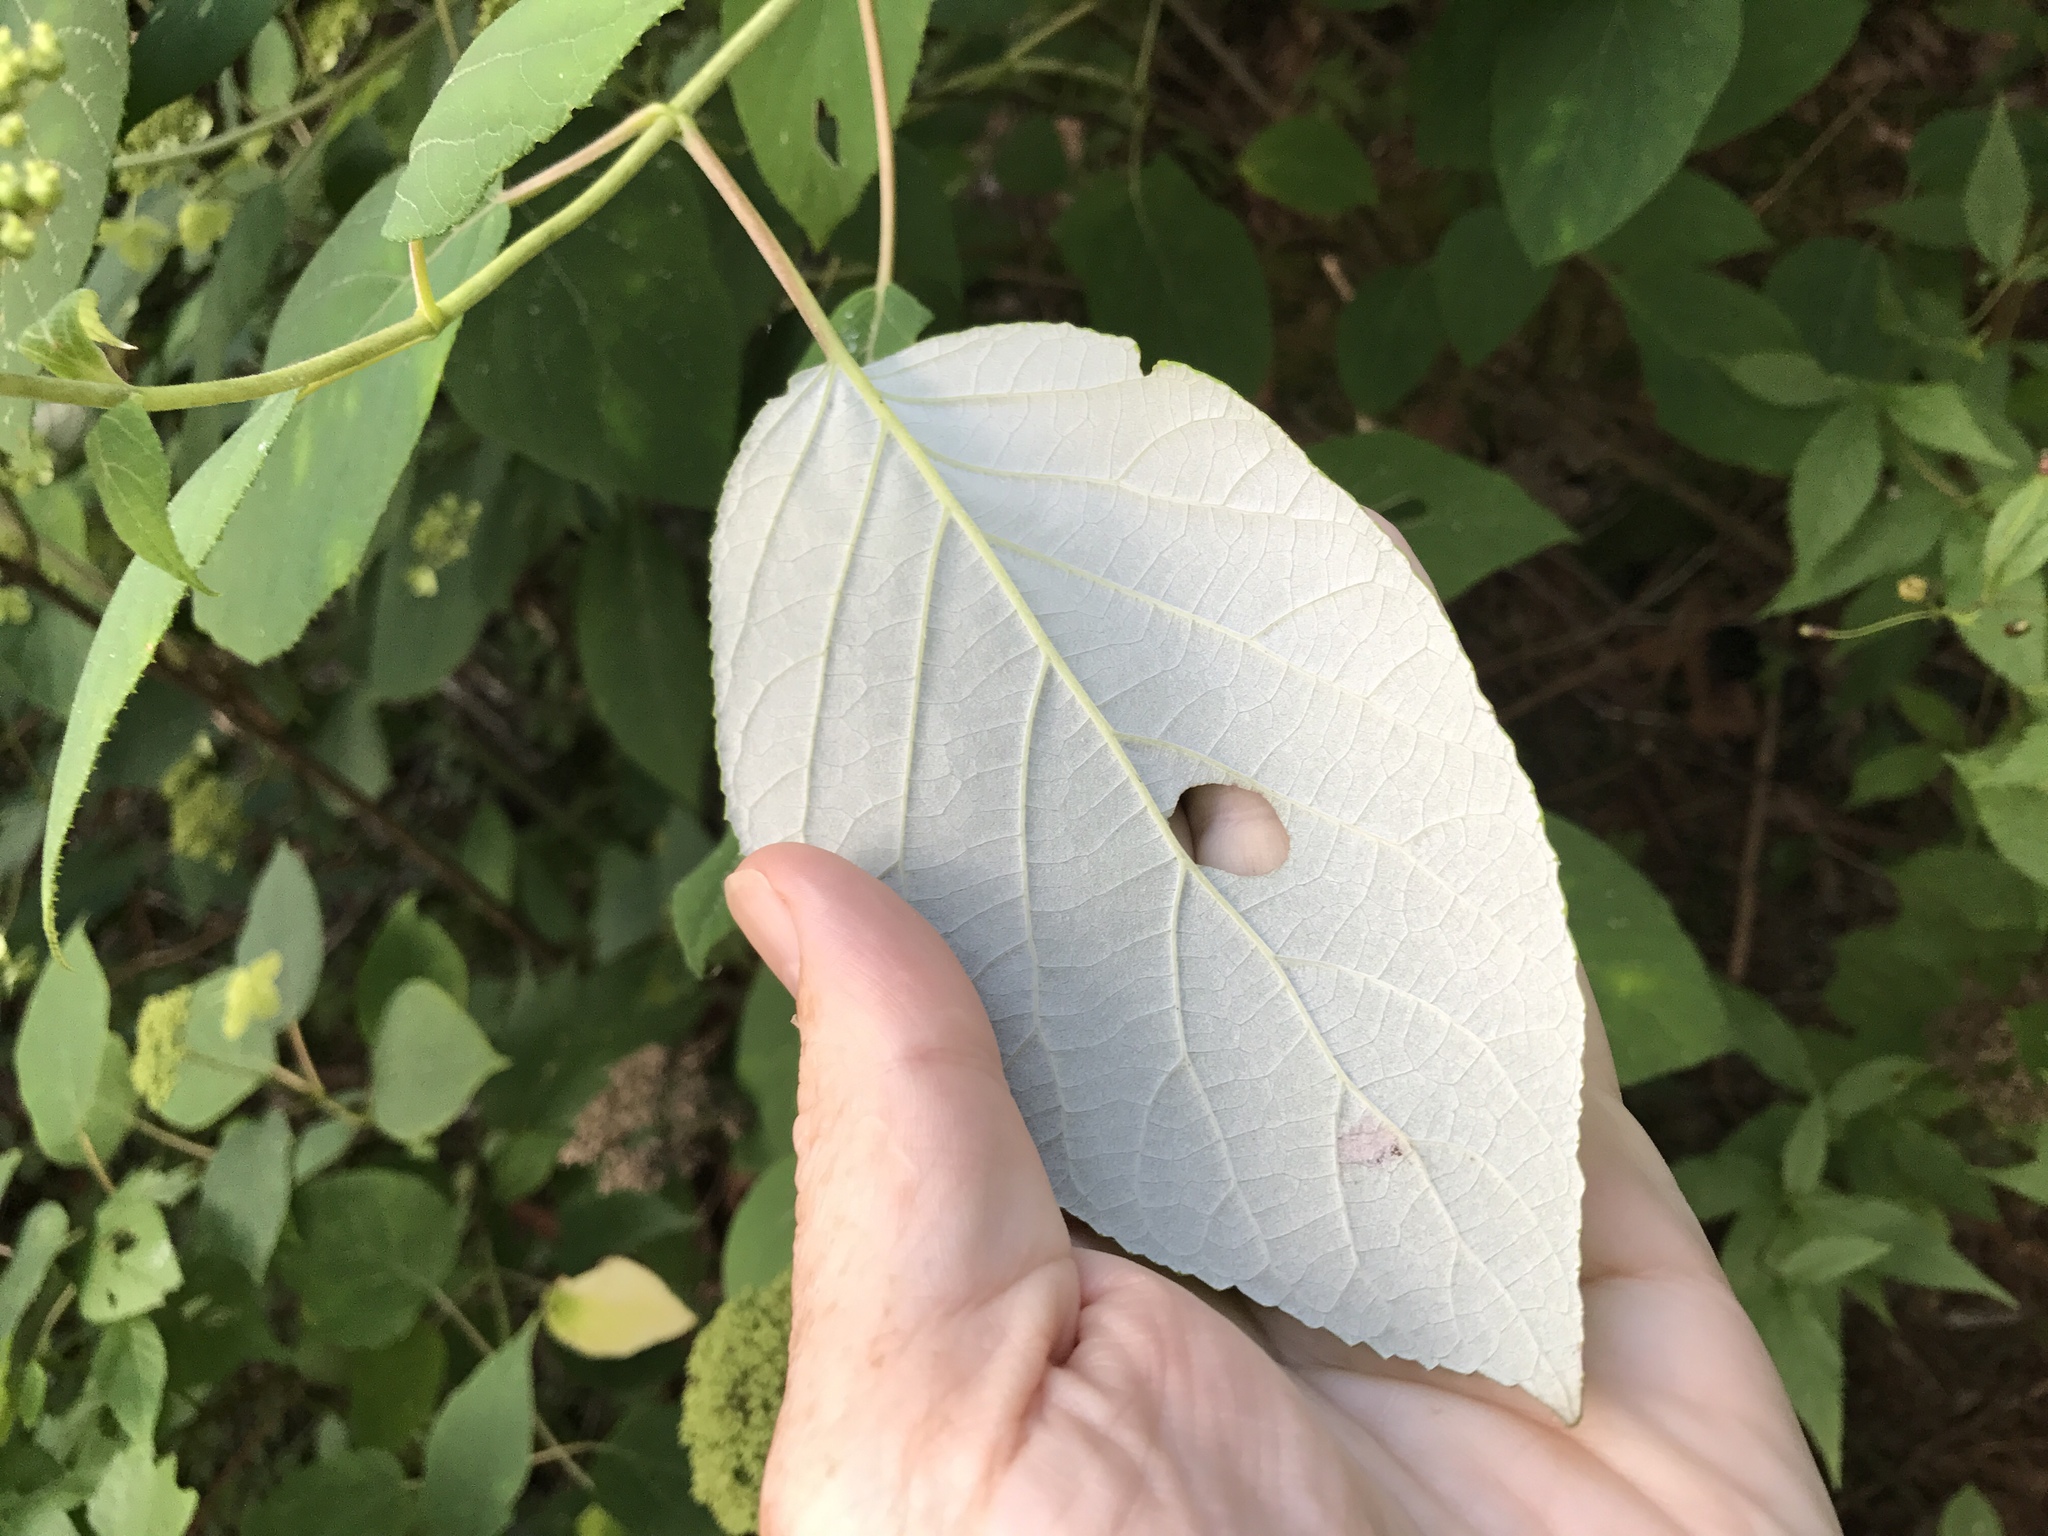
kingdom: Plantae
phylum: Tracheophyta
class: Magnoliopsida
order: Cornales
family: Hydrangeaceae
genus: Hydrangea
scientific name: Hydrangea radiata
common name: Silverleaf hydrangea
